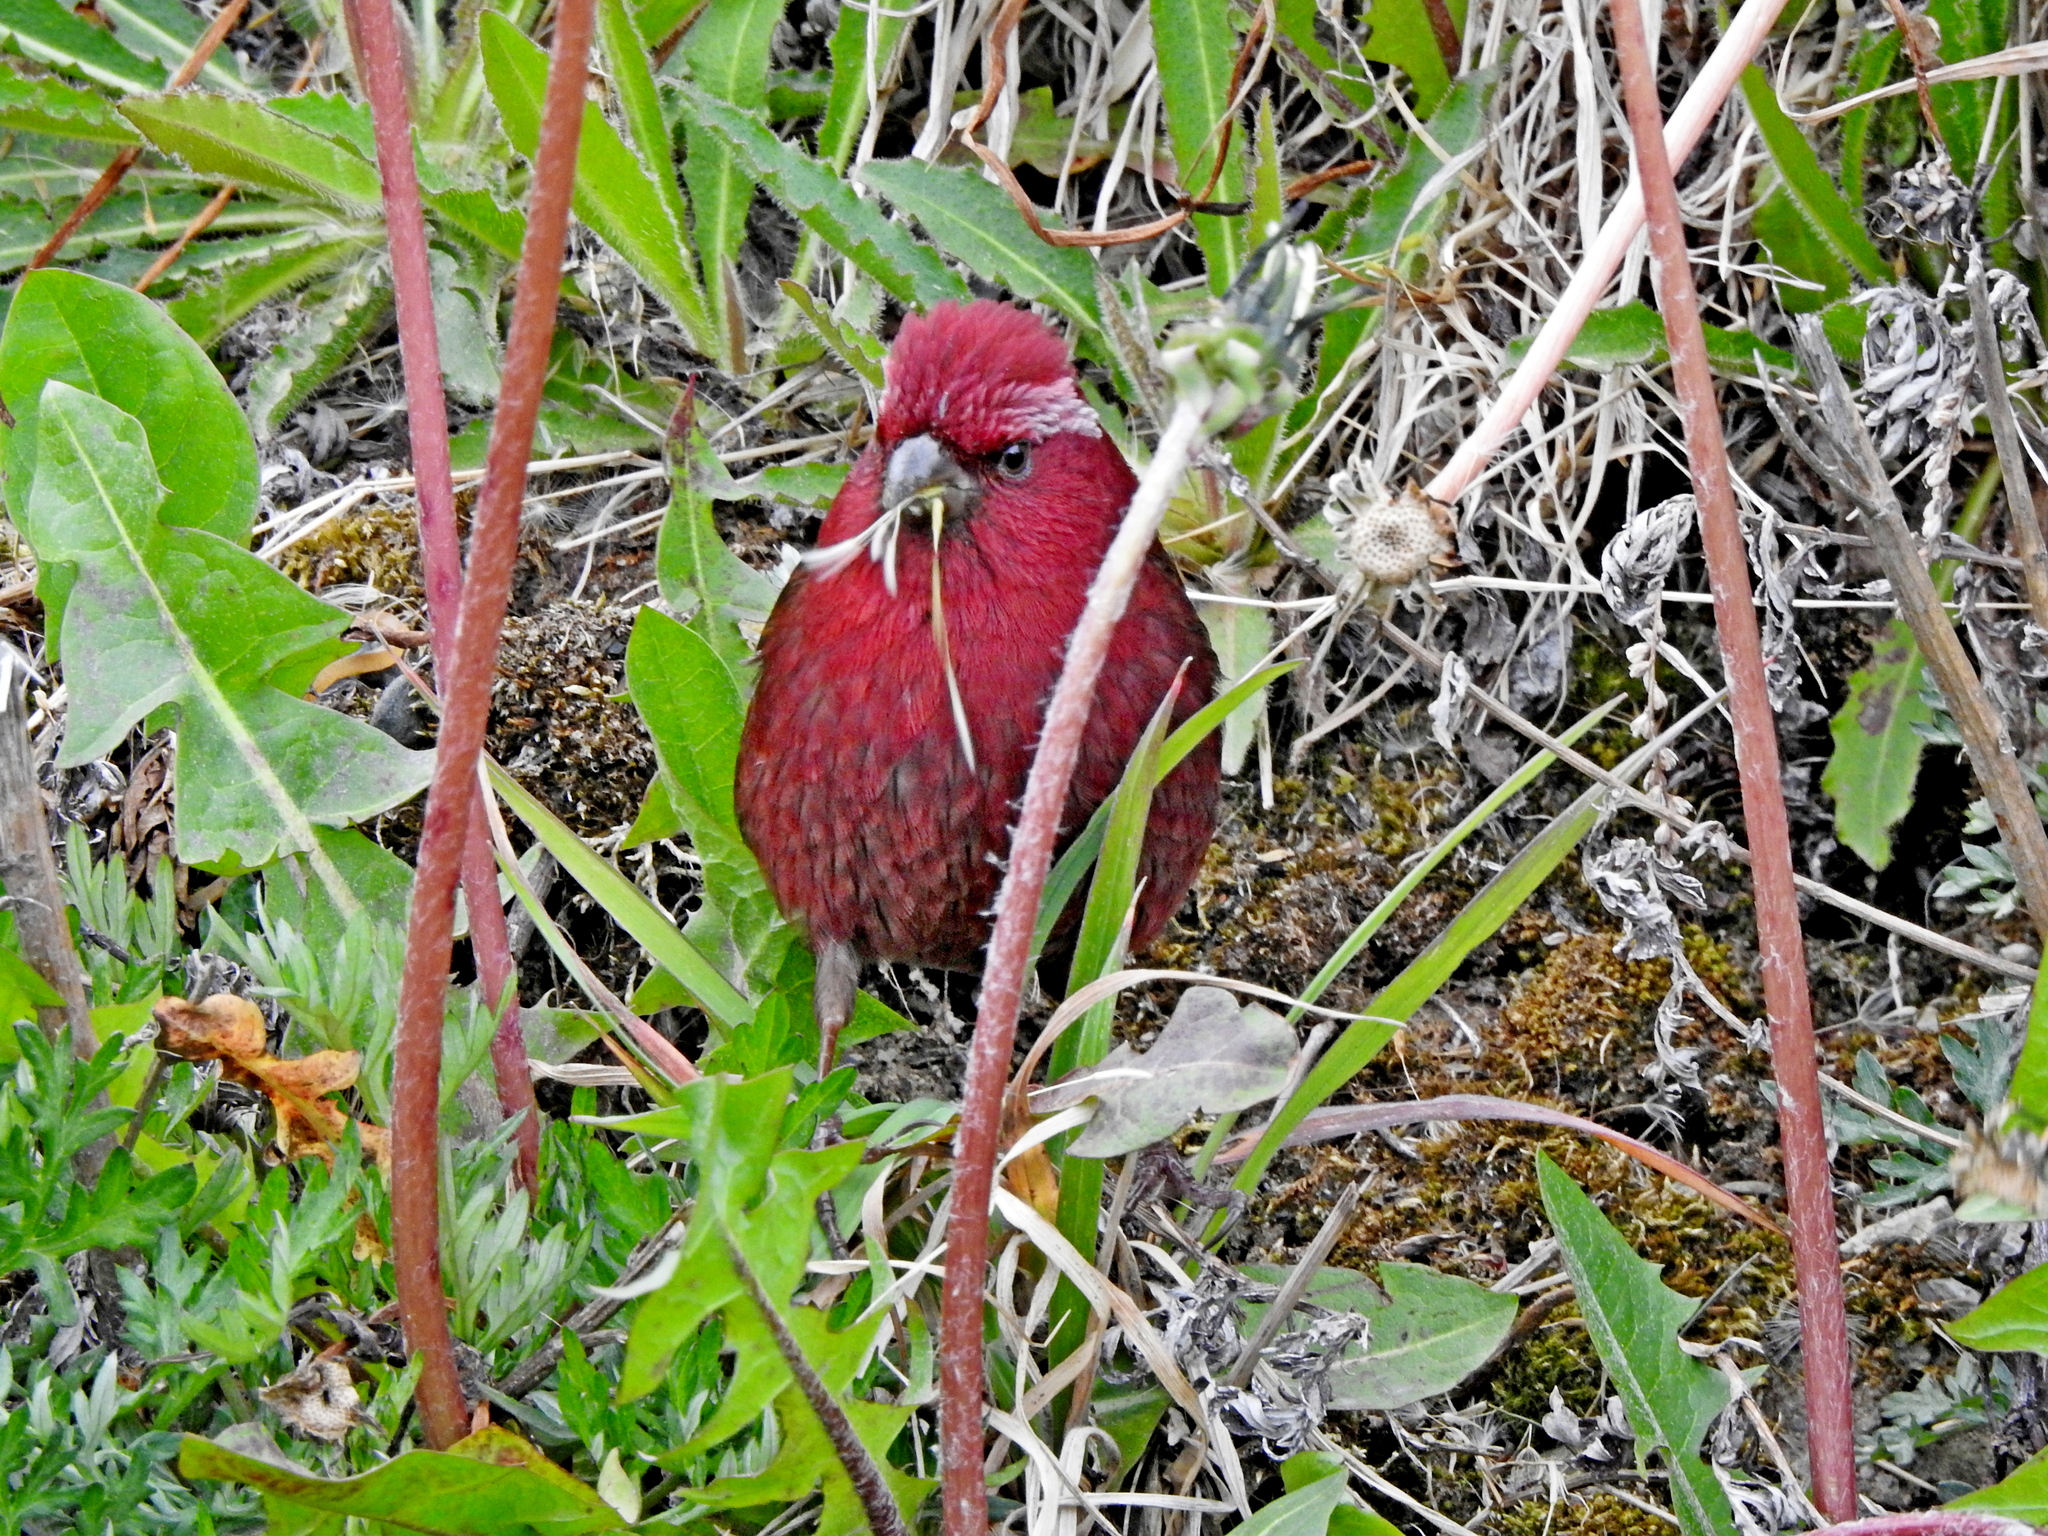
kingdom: Animalia
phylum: Chordata
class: Aves
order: Passeriformes
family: Fringillidae
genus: Carpodacus
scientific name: Carpodacus formosanus
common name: Taiwan rosefinch
